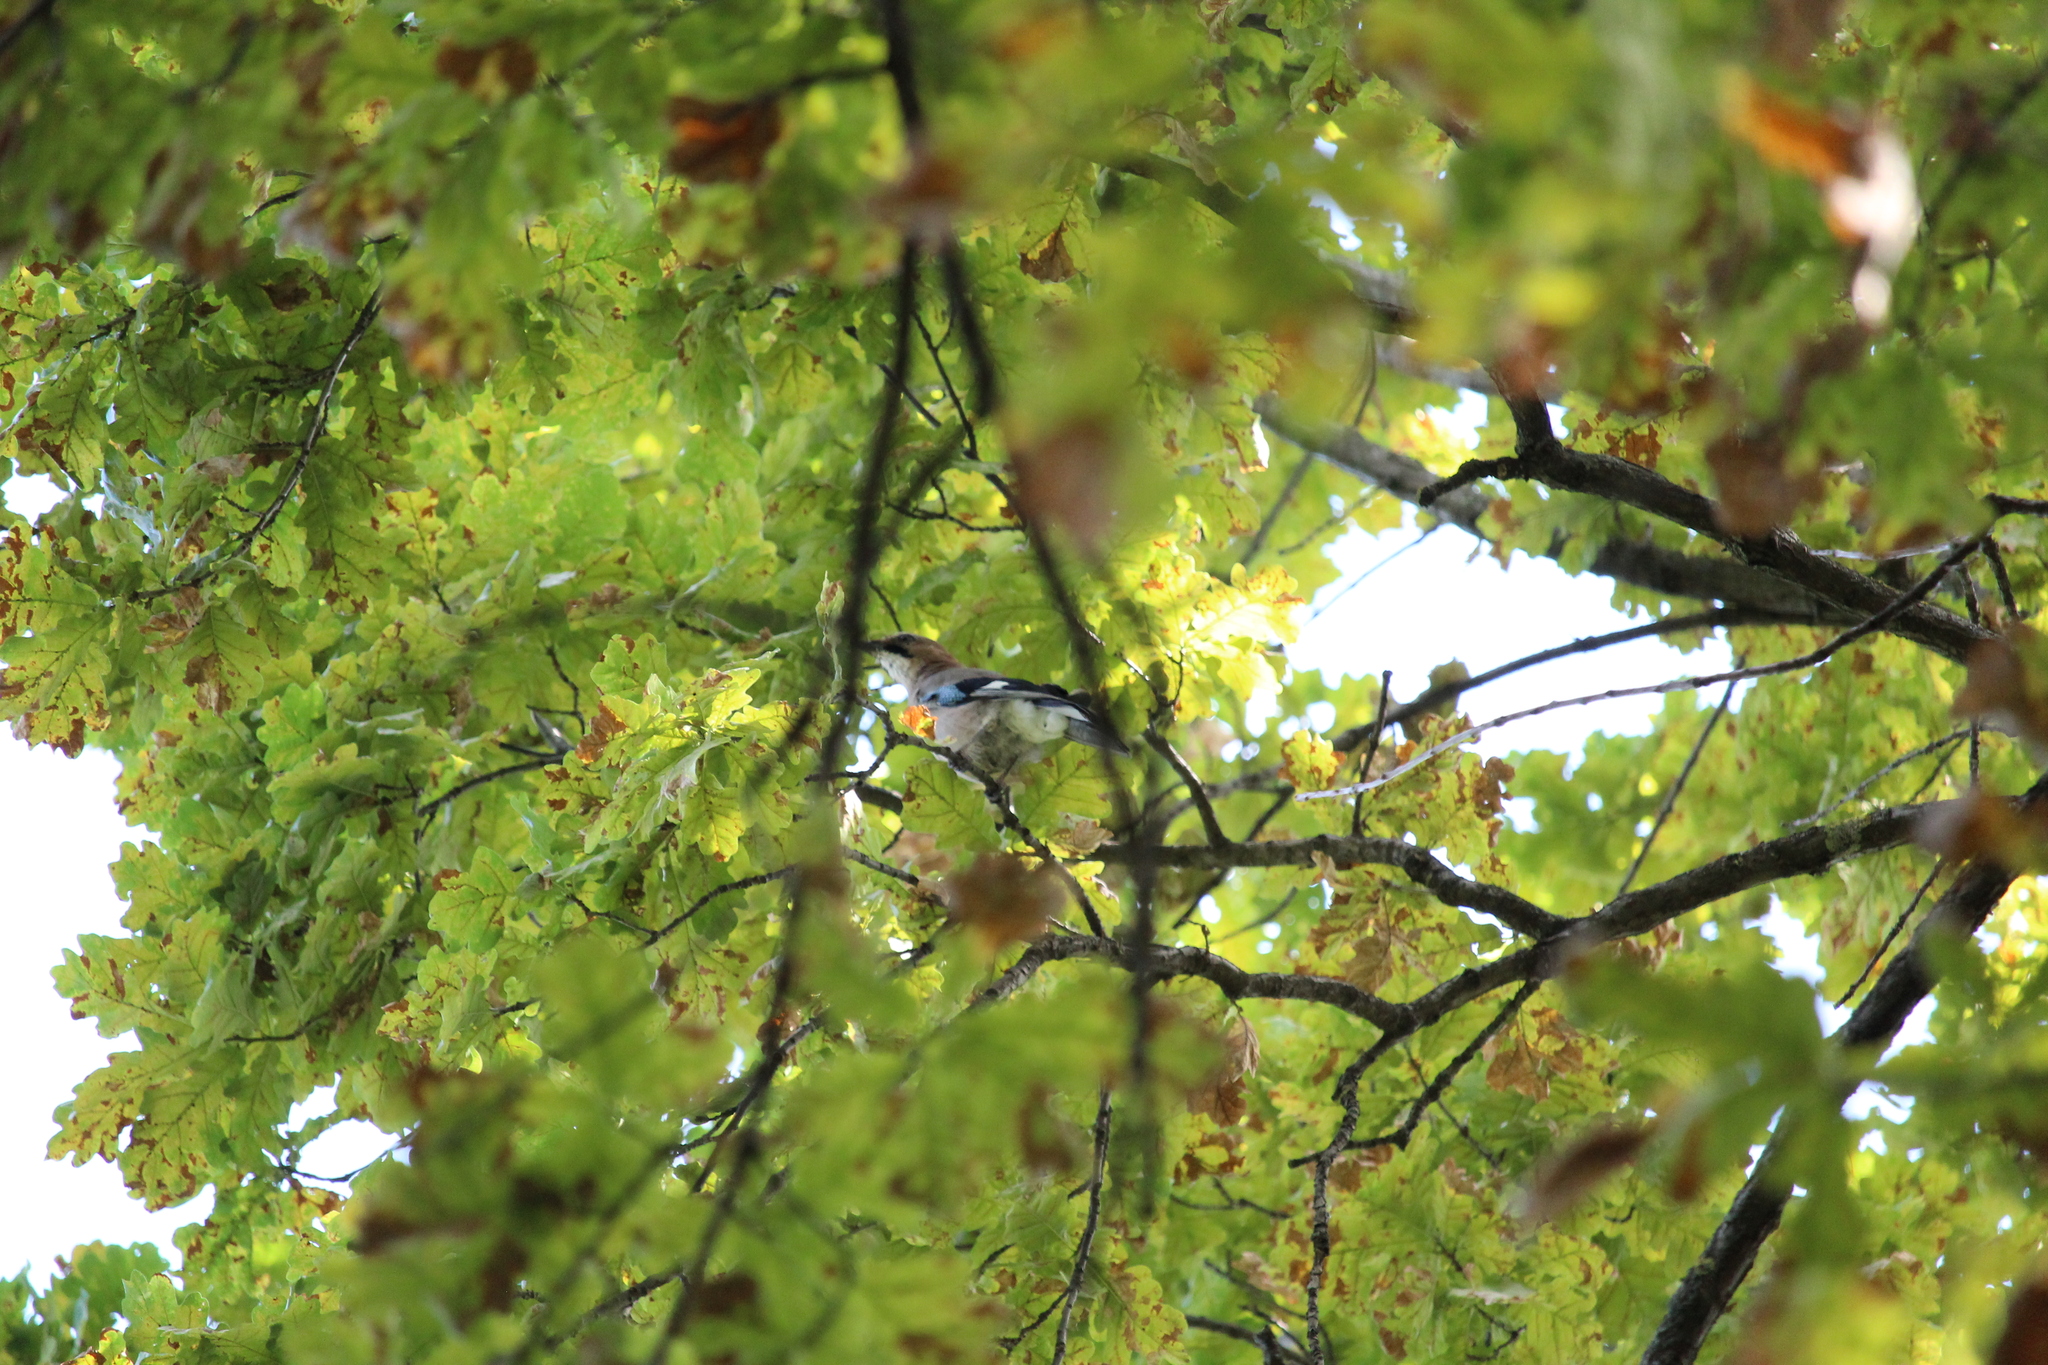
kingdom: Animalia
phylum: Chordata
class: Aves
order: Passeriformes
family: Corvidae
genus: Garrulus
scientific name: Garrulus glandarius
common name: Eurasian jay
